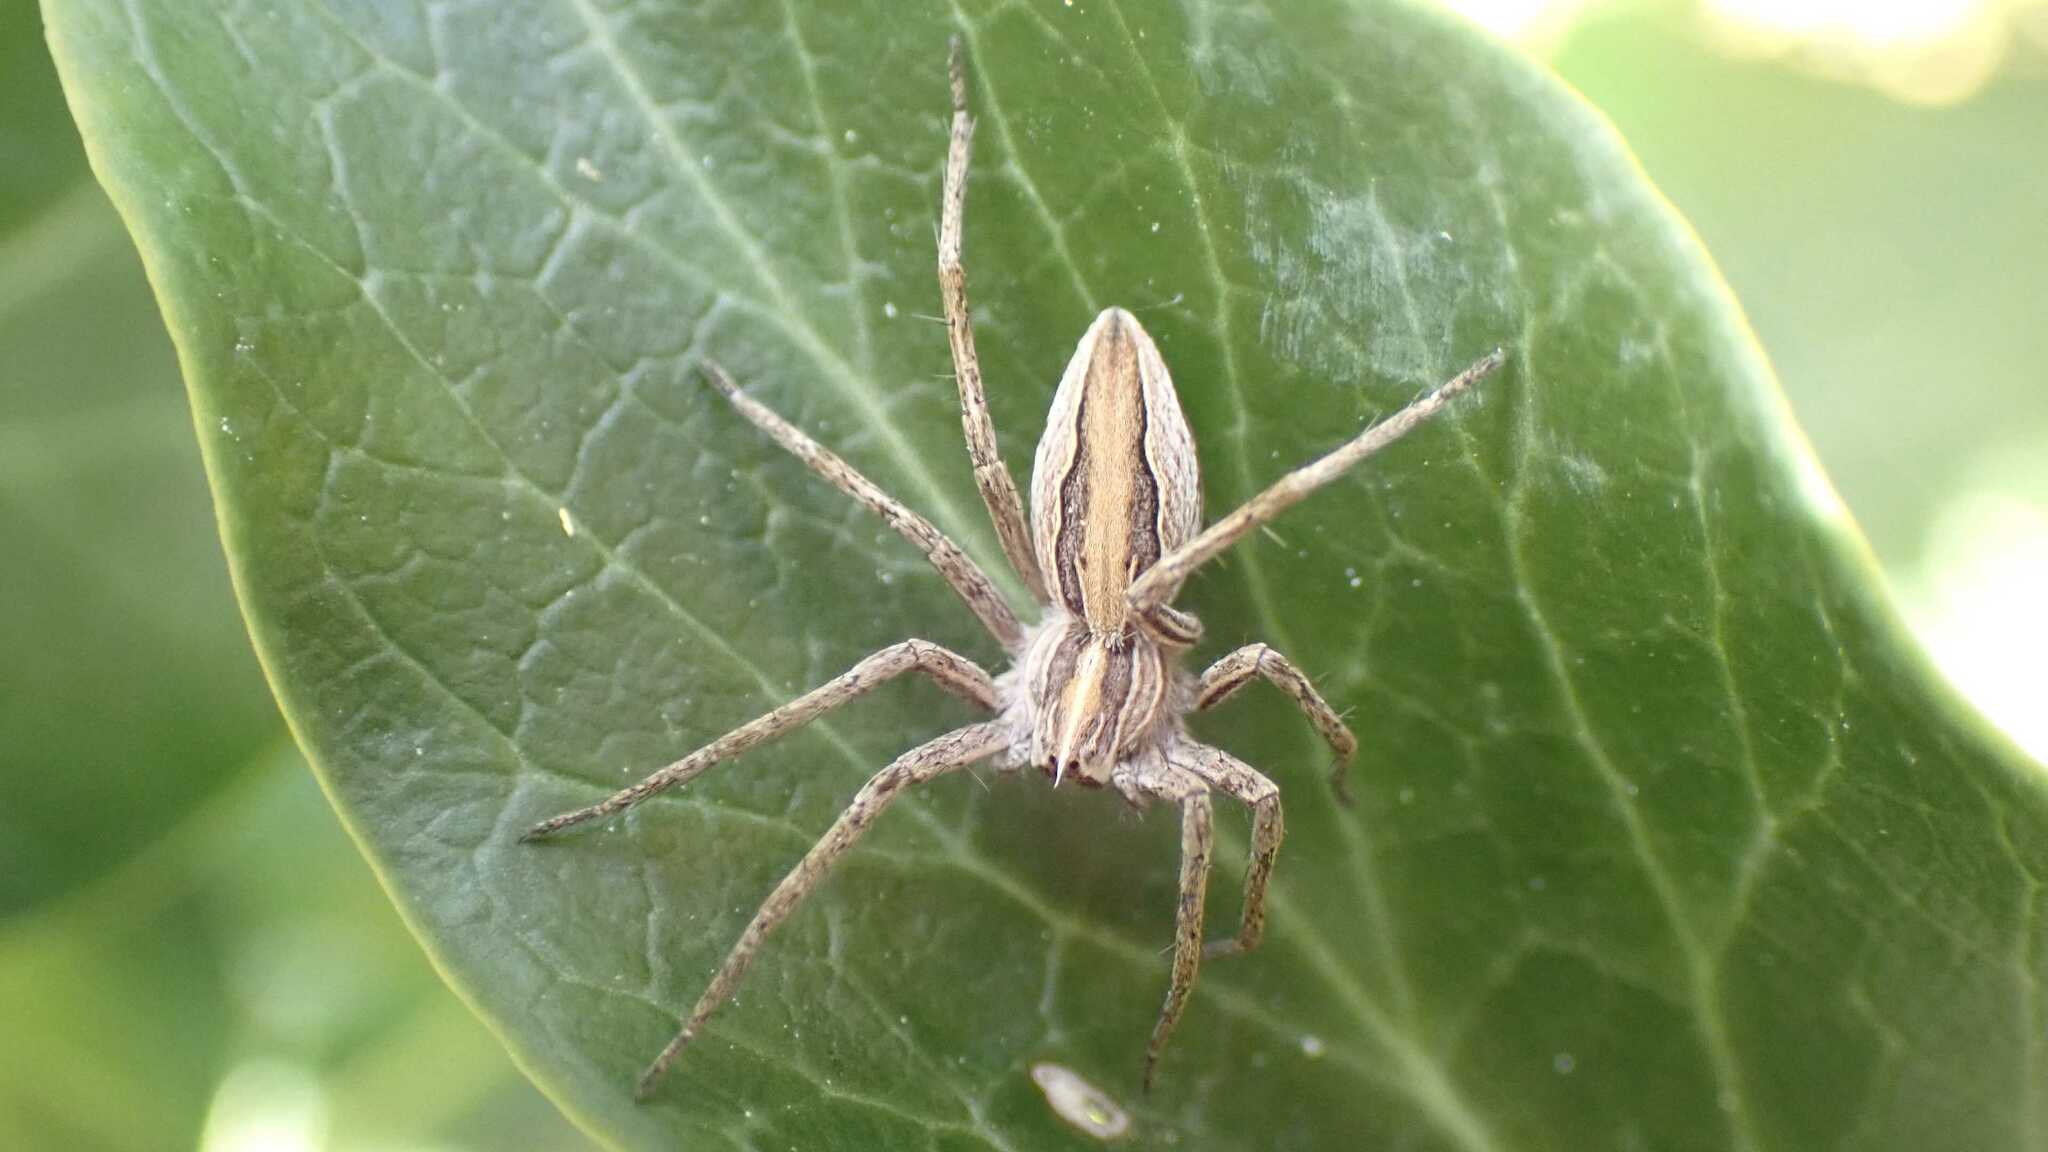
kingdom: Animalia
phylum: Arthropoda
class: Arachnida
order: Araneae
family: Pisauridae
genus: Pisaura
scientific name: Pisaura mirabilis
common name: Tent spider
